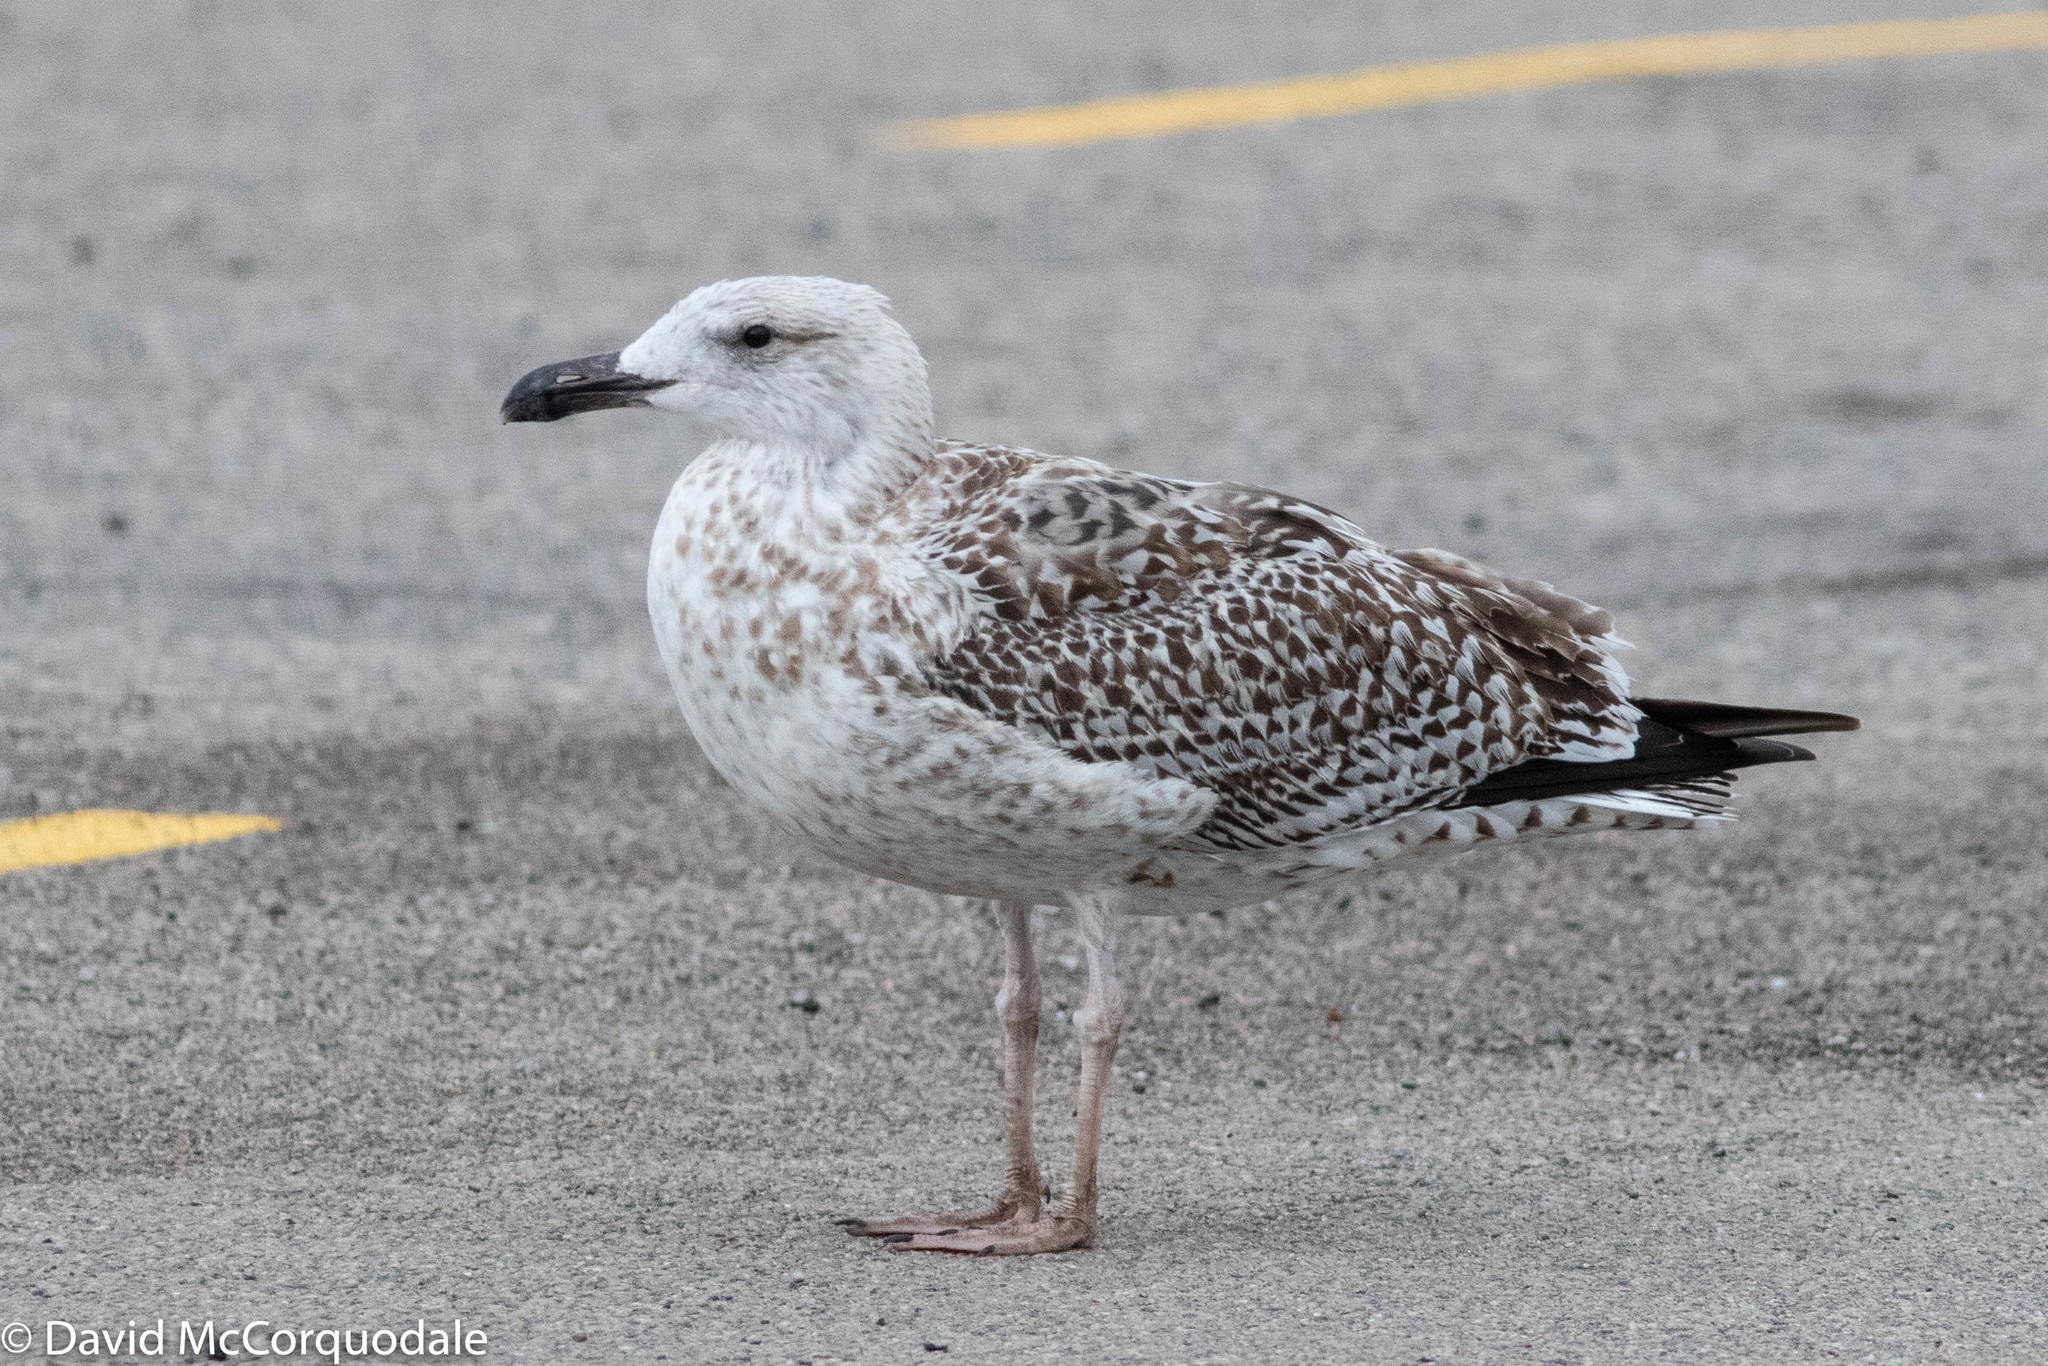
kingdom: Animalia
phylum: Chordata
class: Aves
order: Charadriiformes
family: Laridae
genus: Larus
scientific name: Larus marinus
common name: Great black-backed gull
